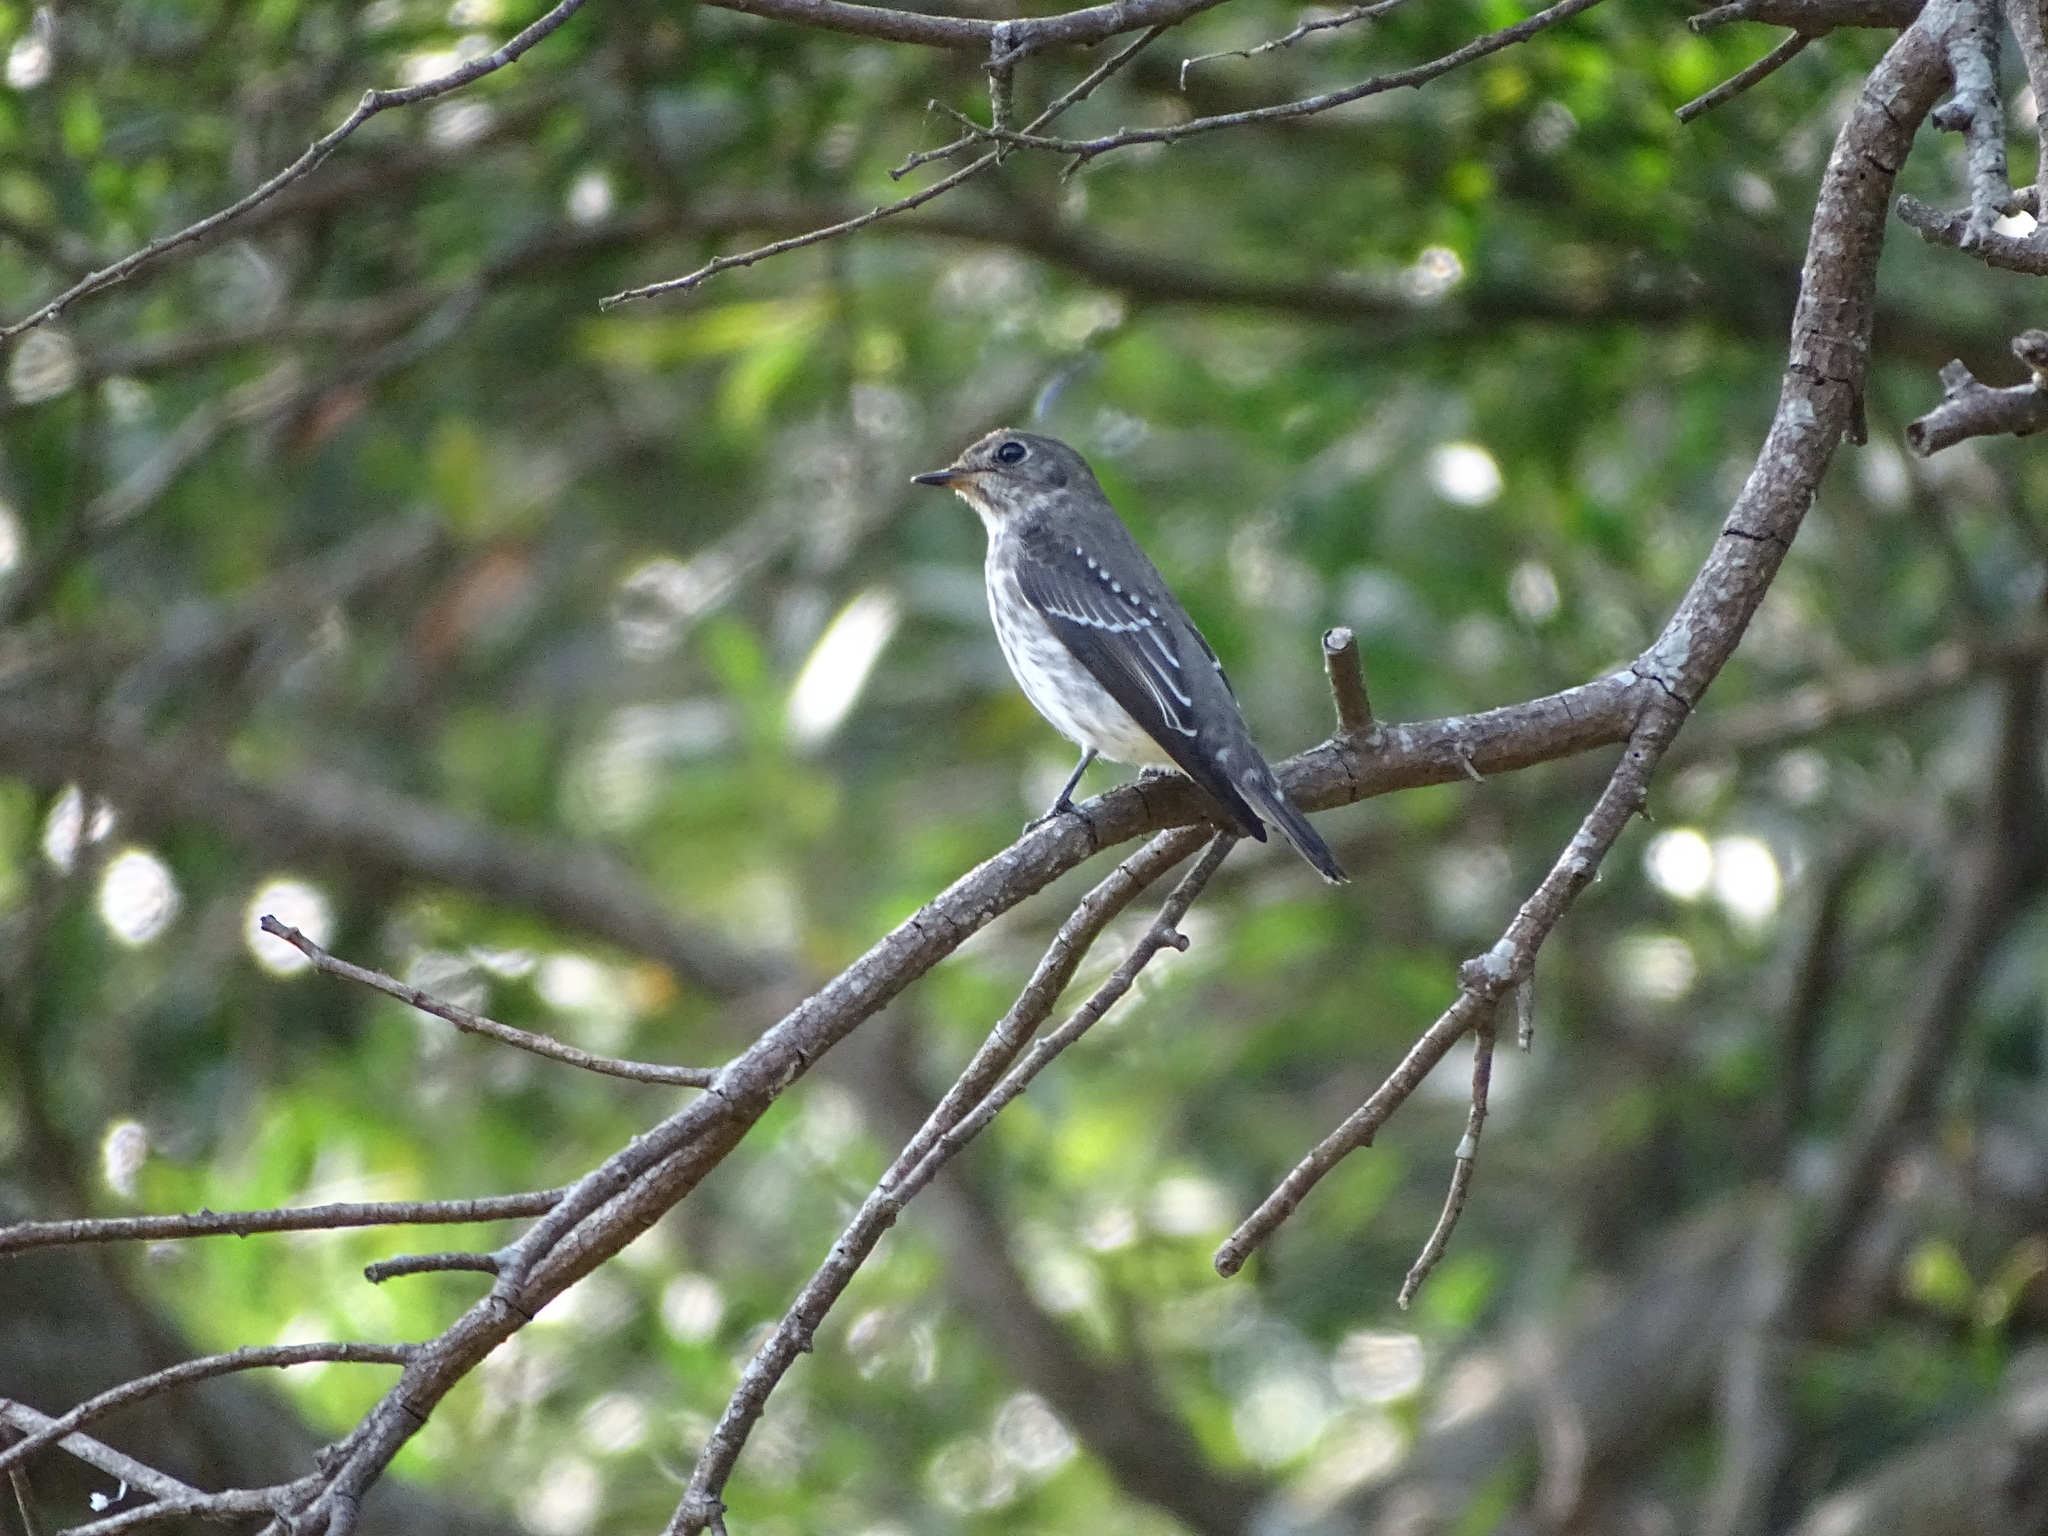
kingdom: Animalia
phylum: Chordata
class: Aves
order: Passeriformes
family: Muscicapidae
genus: Muscicapa
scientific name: Muscicapa griseisticta
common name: Gray-streaked flycatcher
